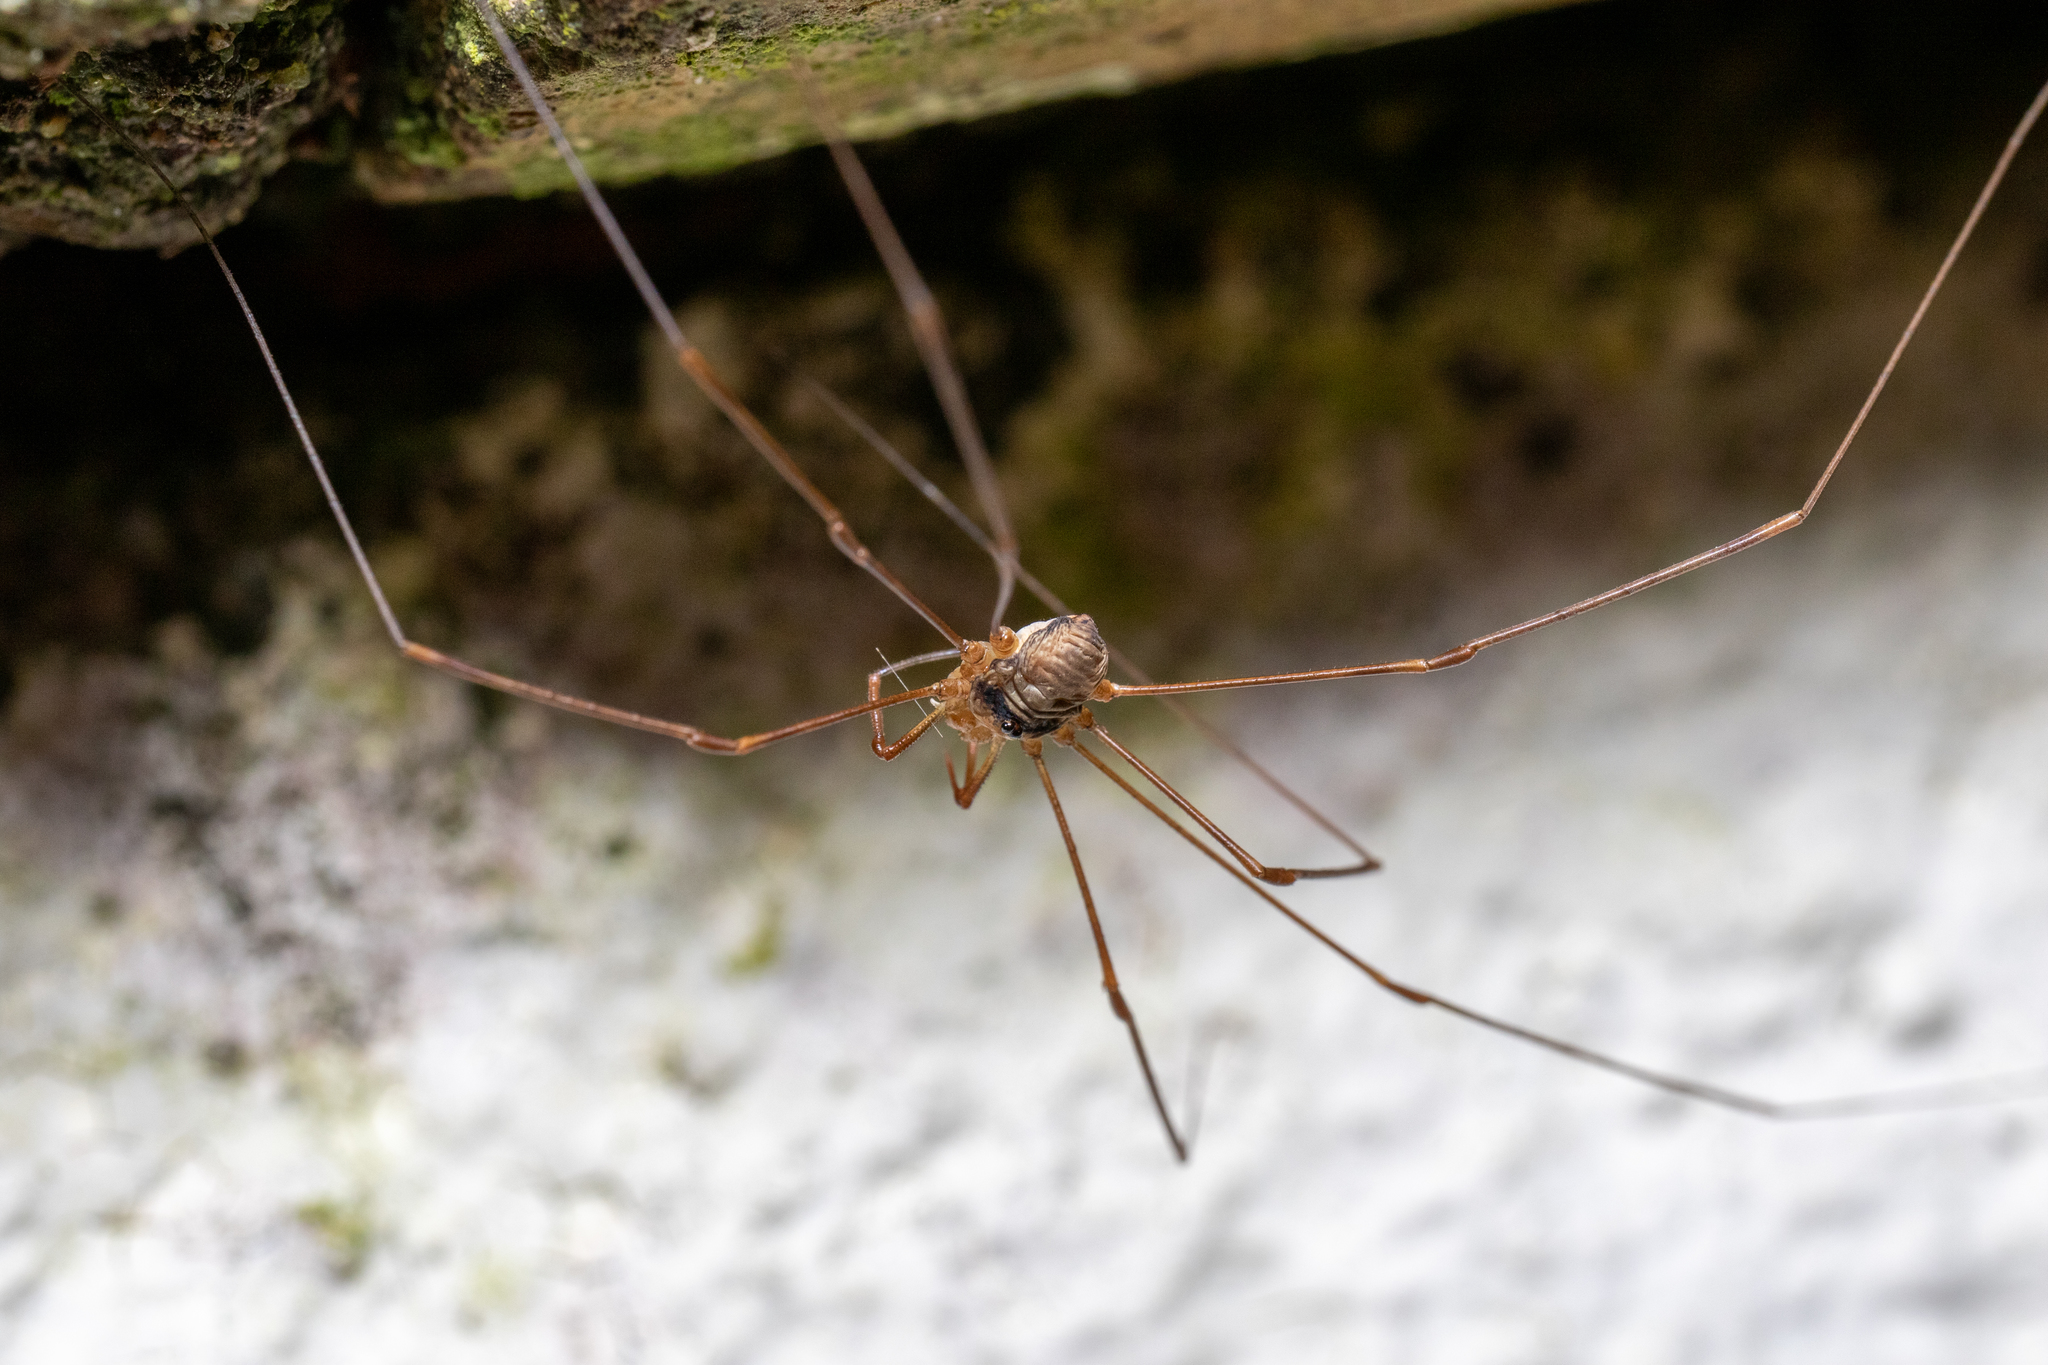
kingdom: Animalia
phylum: Arthropoda
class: Arachnida
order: Opiliones
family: Phalangiidae
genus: Dicranopalpus
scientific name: Dicranopalpus ramosus
